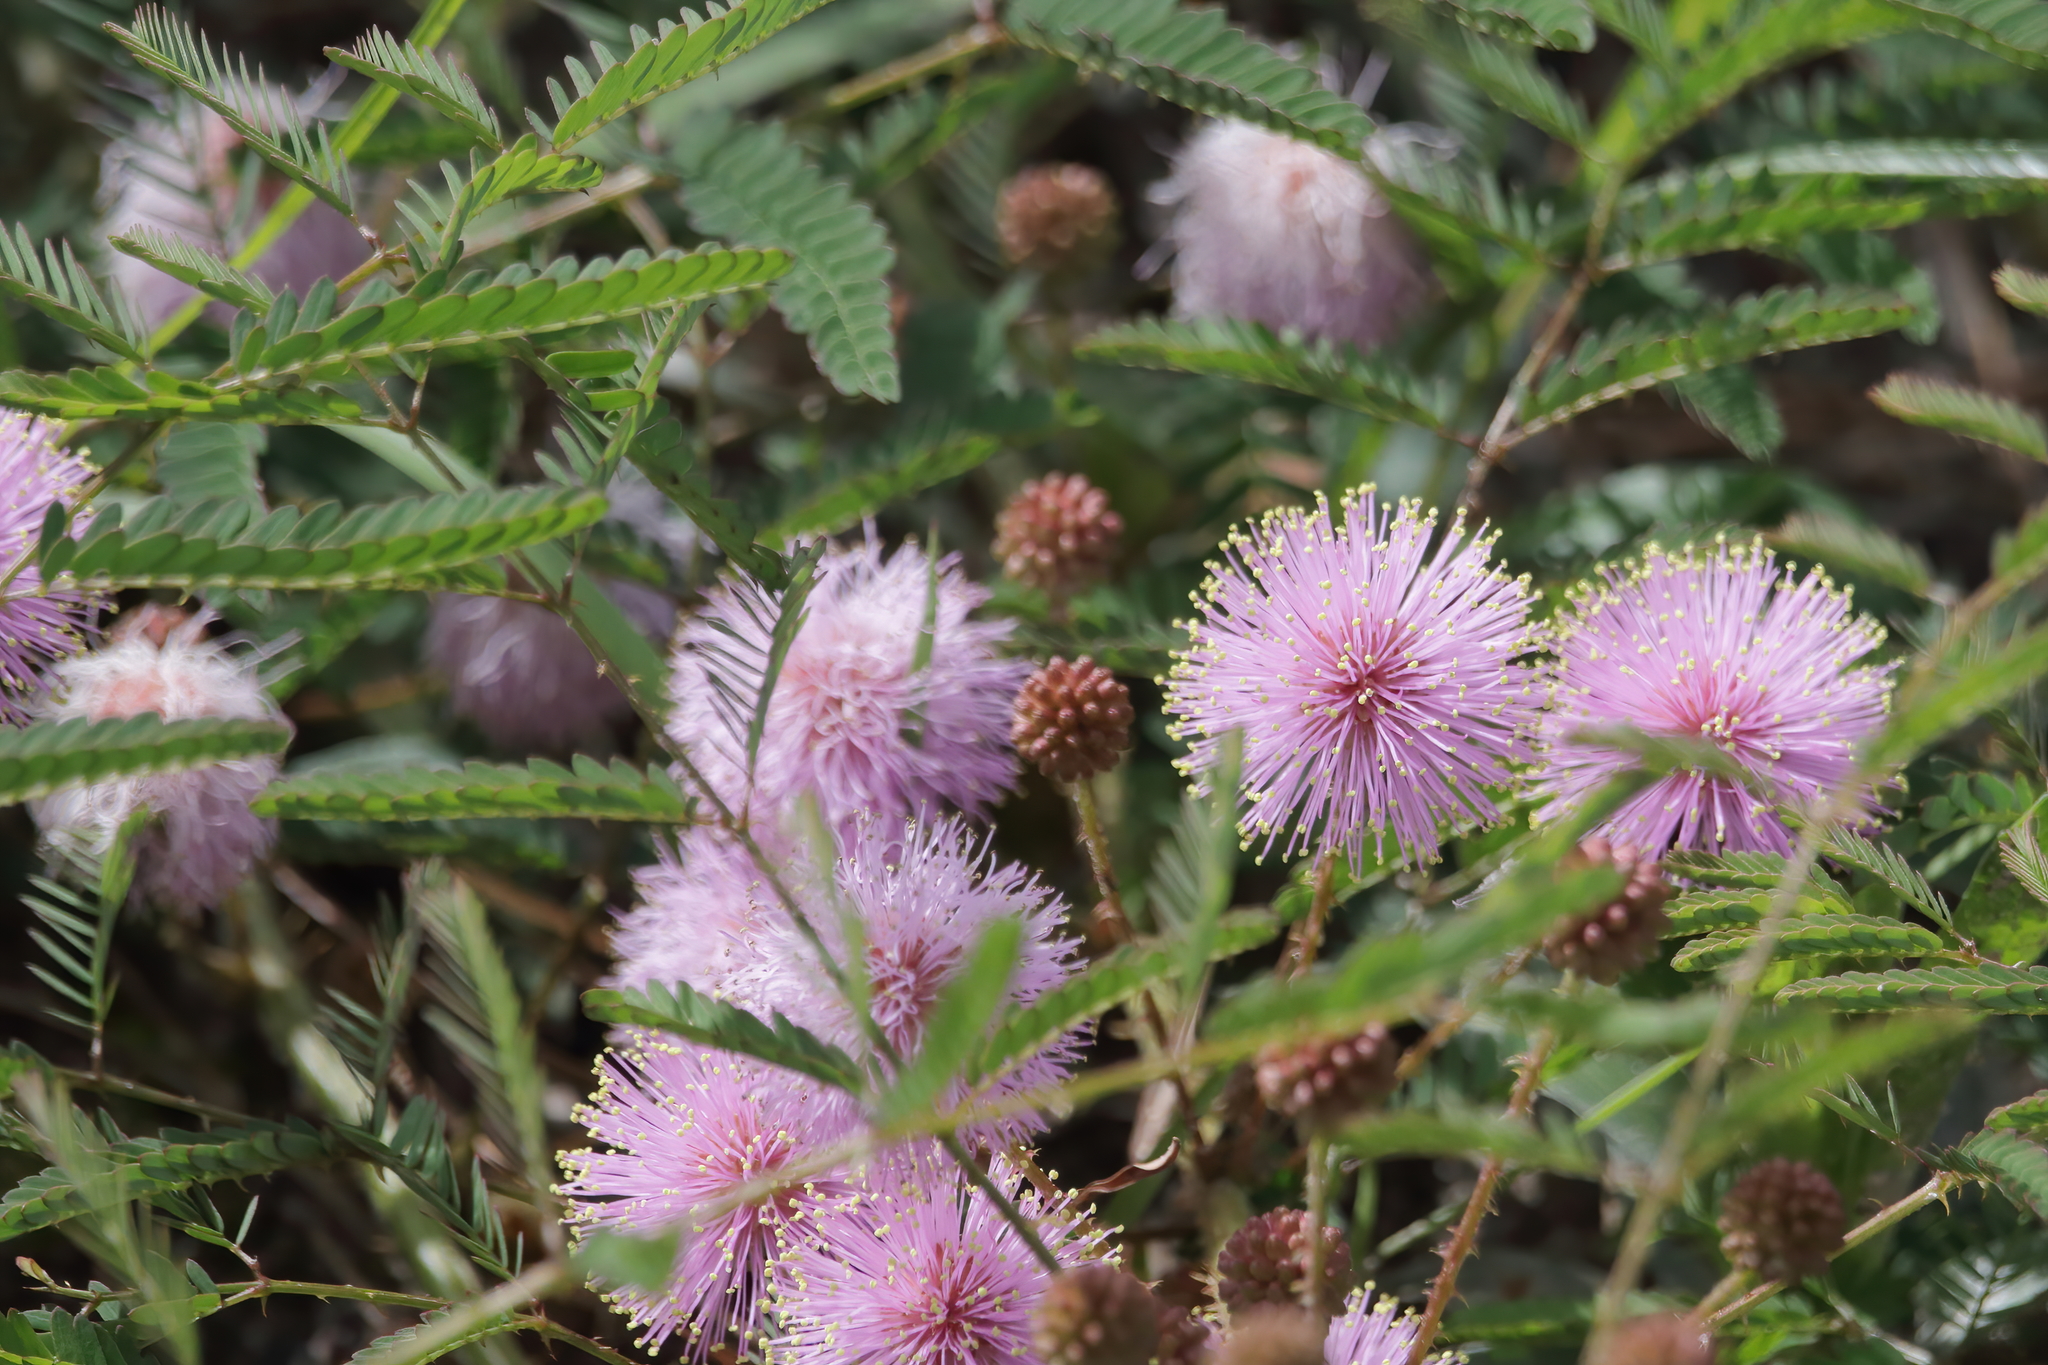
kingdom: Plantae
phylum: Tracheophyta
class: Magnoliopsida
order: Fabales
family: Fabaceae
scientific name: Fabaceae
